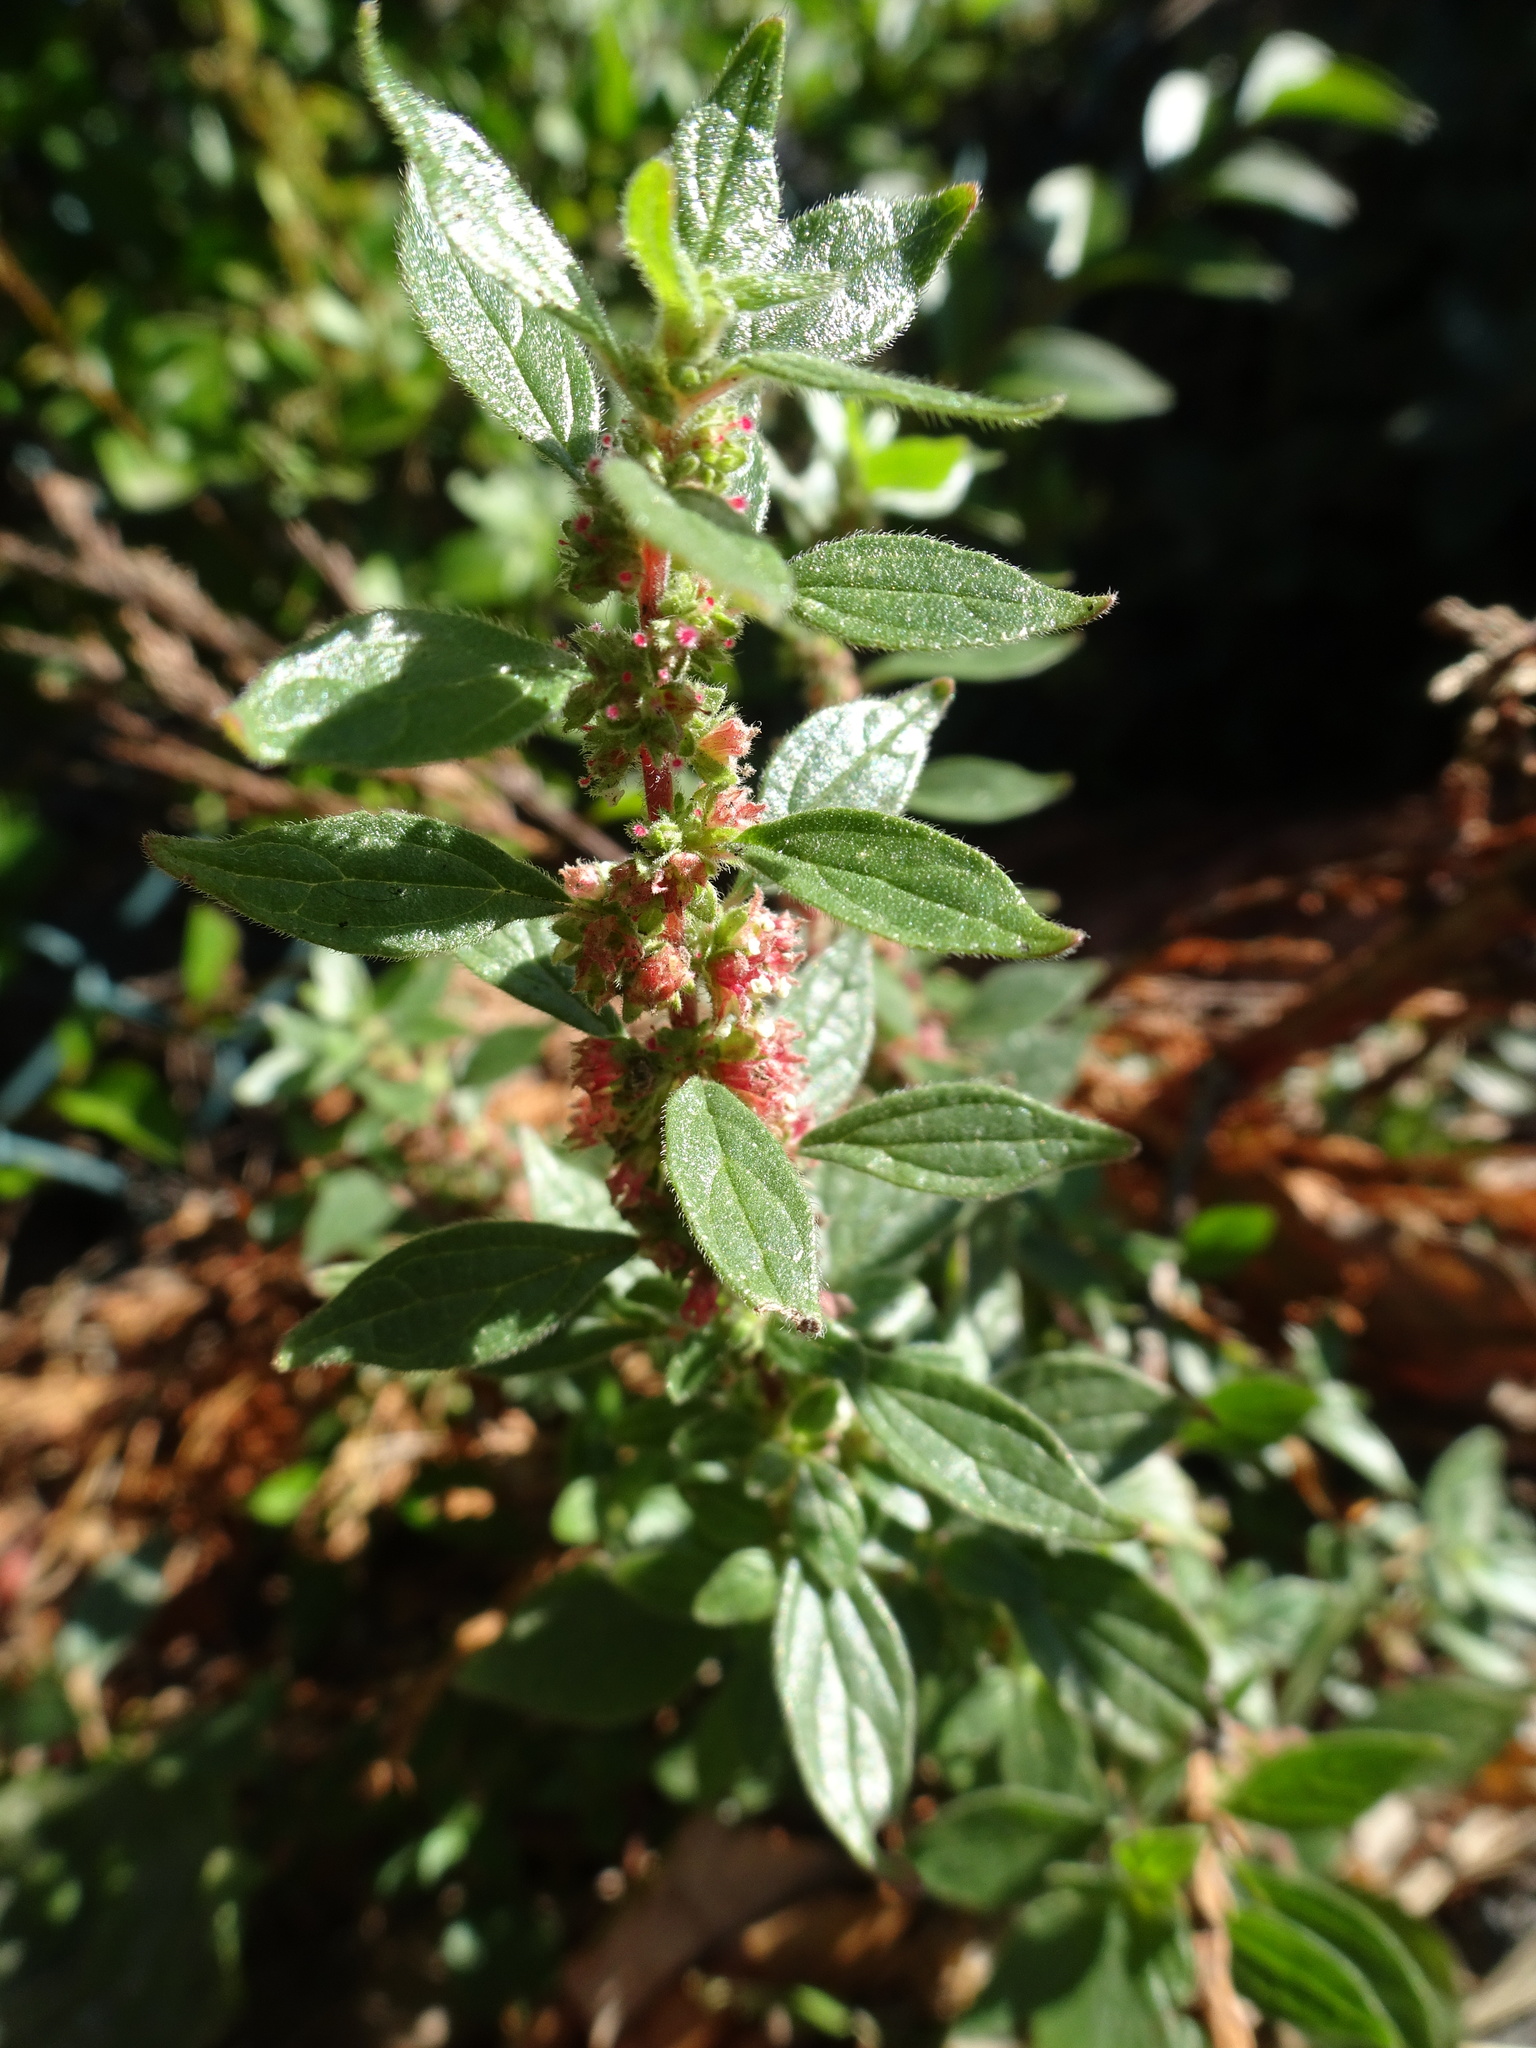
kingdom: Plantae
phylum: Tracheophyta
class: Magnoliopsida
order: Rosales
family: Urticaceae
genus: Parietaria
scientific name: Parietaria judaica
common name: Pellitory-of-the-wall
